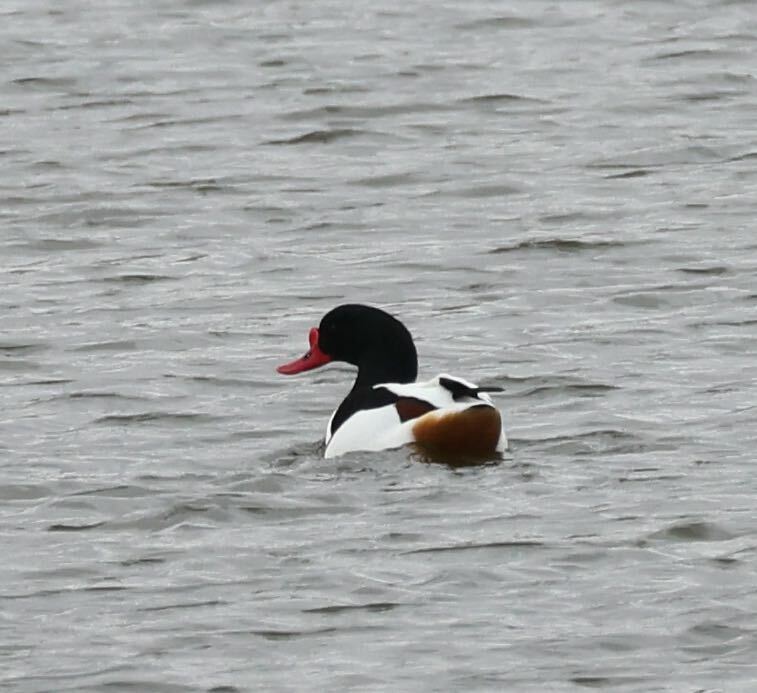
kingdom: Animalia
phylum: Chordata
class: Aves
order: Anseriformes
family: Anatidae
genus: Tadorna
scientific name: Tadorna tadorna
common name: Common shelduck
